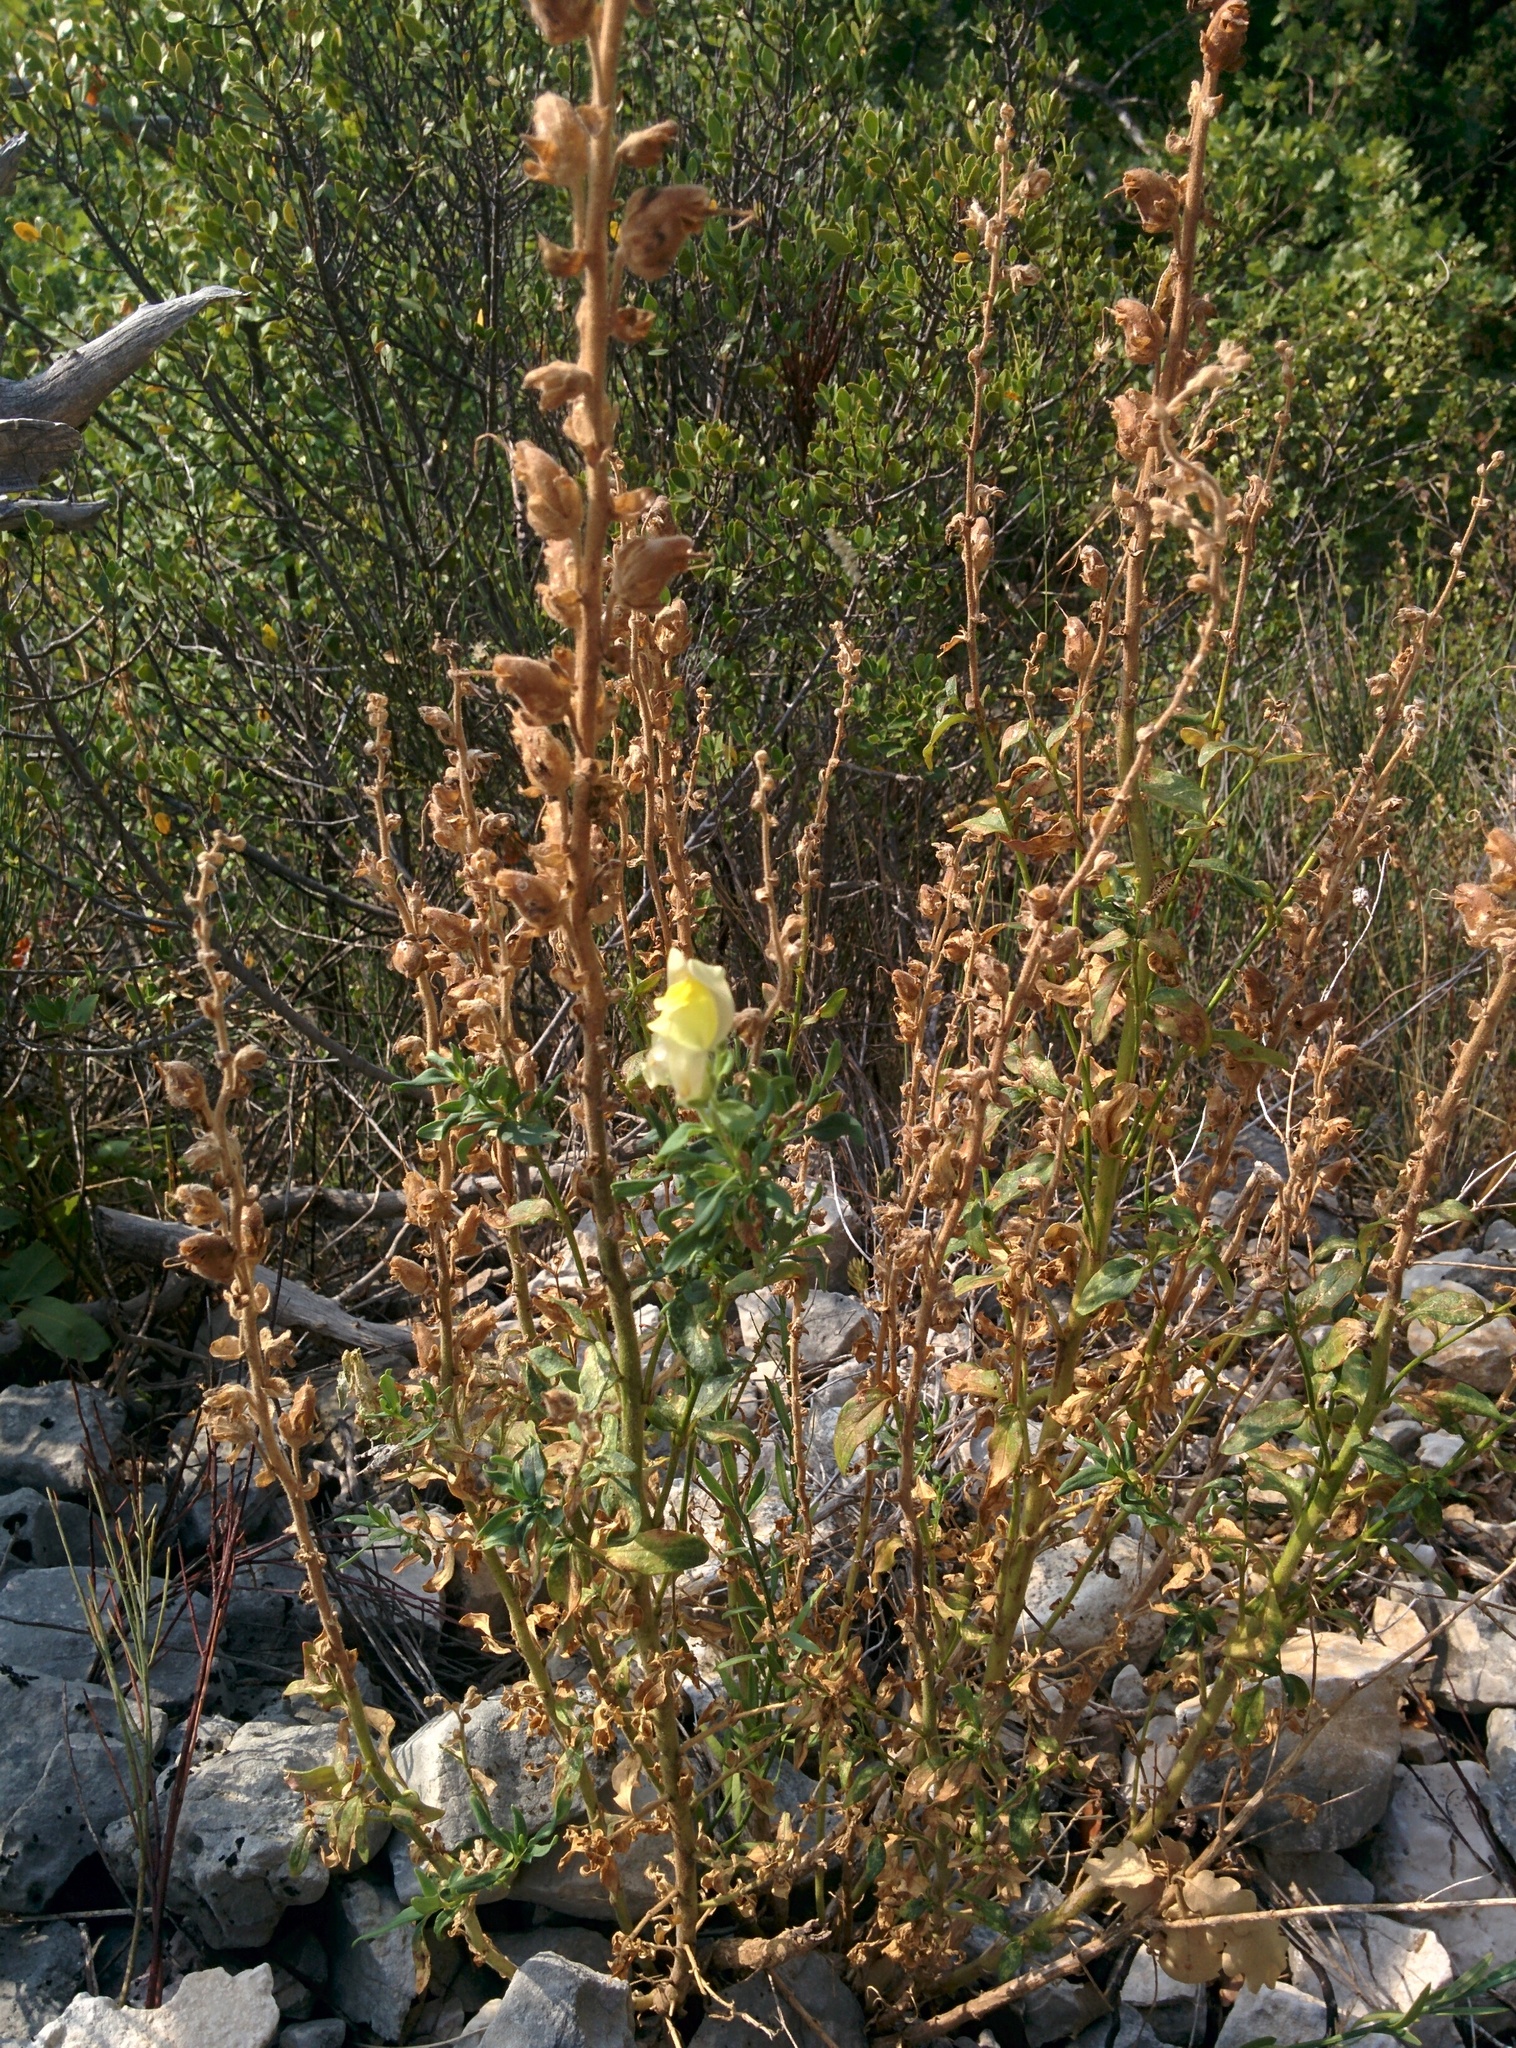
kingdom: Plantae
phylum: Tracheophyta
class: Magnoliopsida
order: Lamiales
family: Plantaginaceae
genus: Antirrhinum
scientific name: Antirrhinum latifolium
